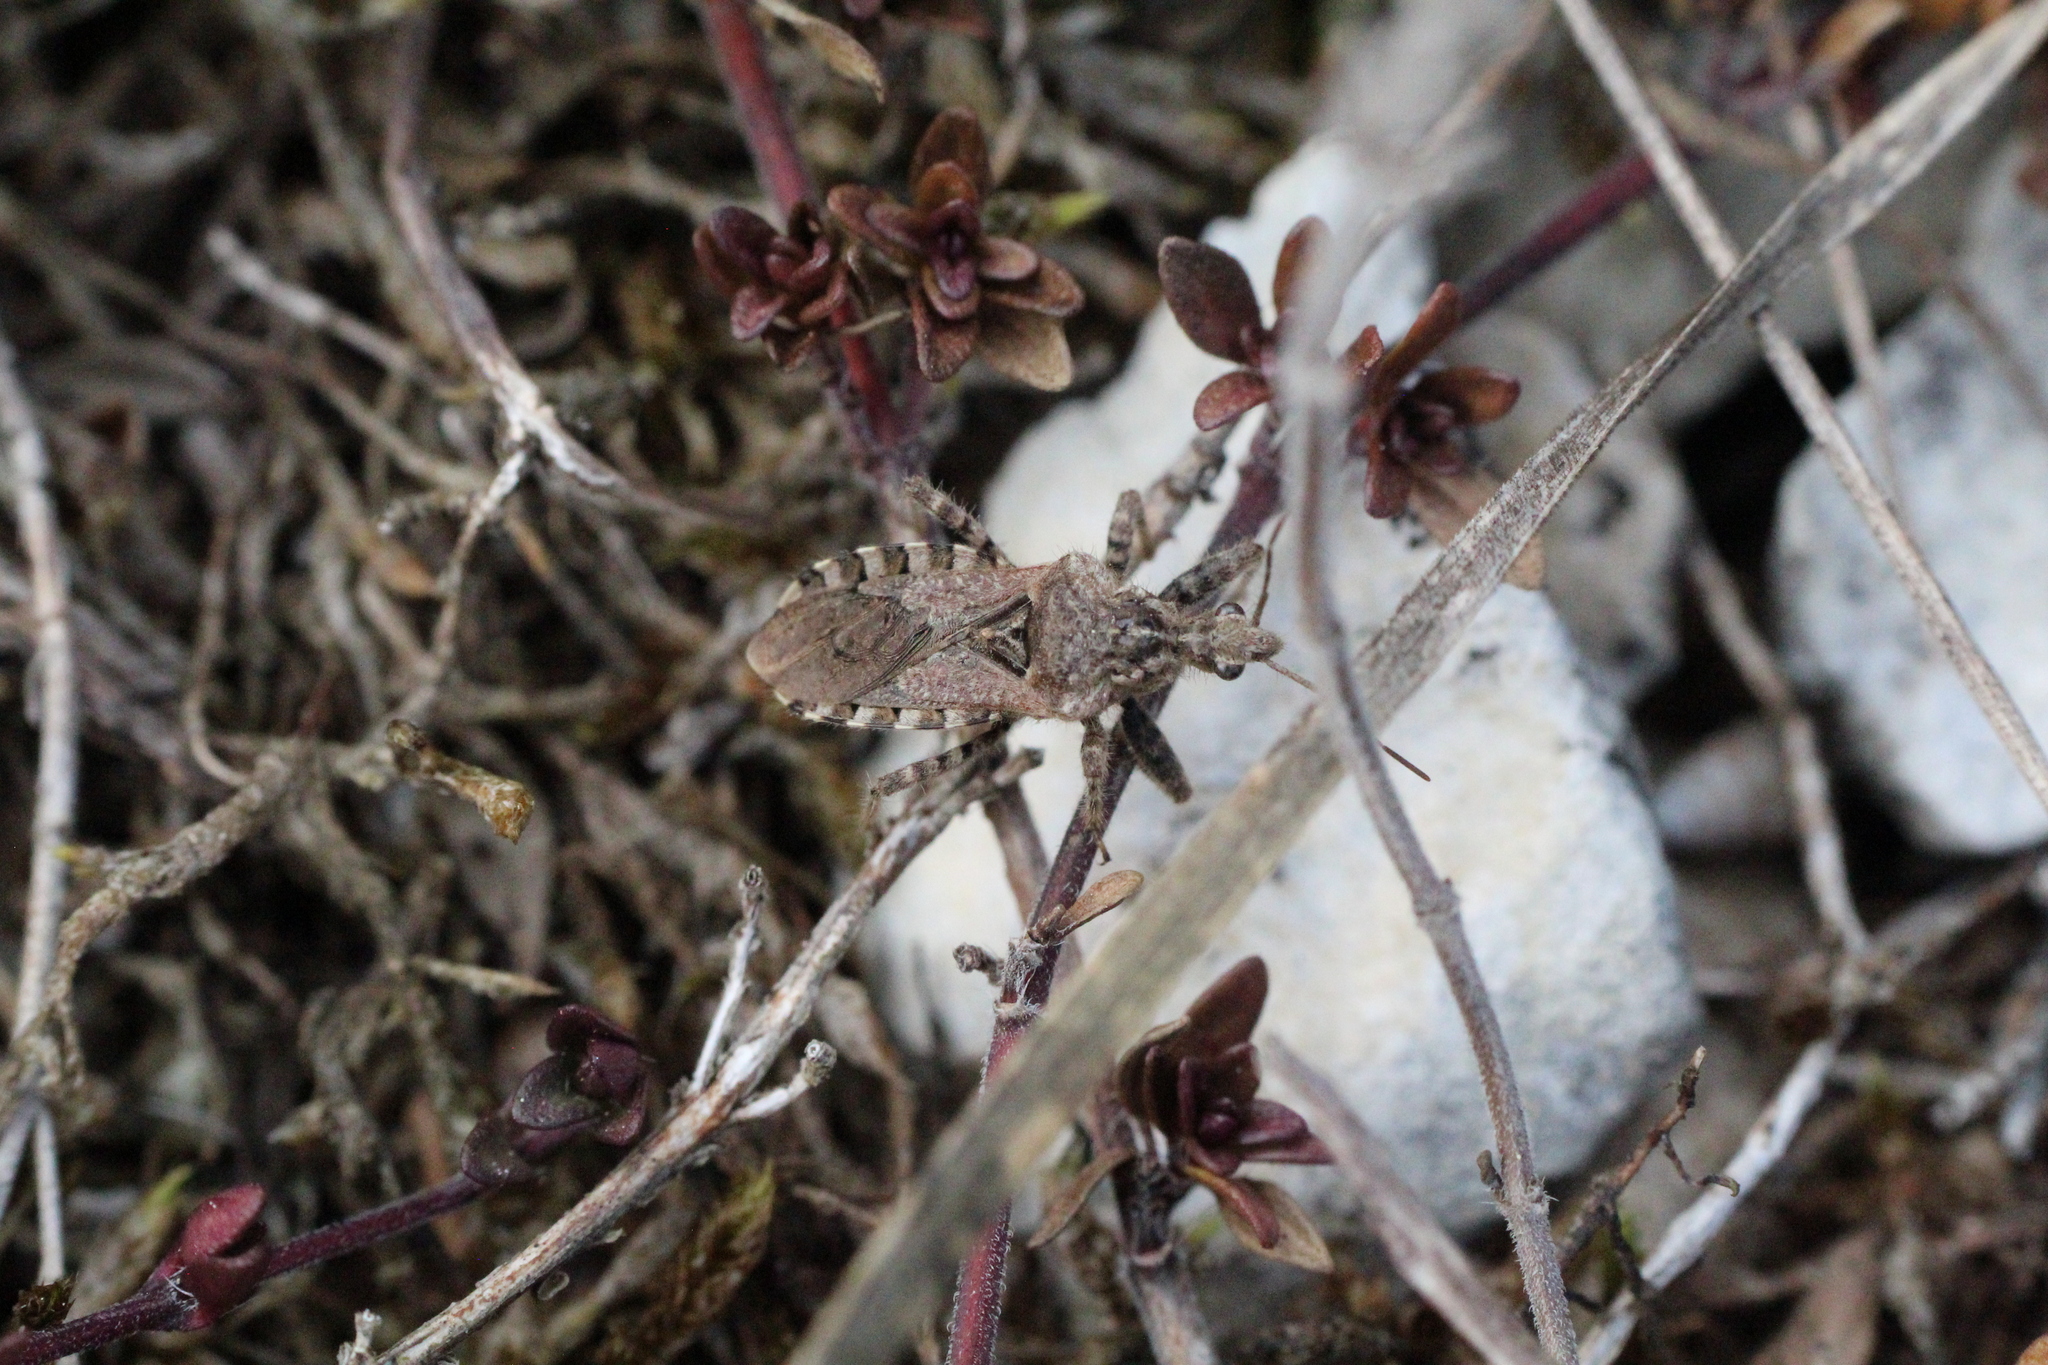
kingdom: Animalia
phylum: Arthropoda
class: Insecta
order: Hemiptera
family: Reduviidae
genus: Coranus
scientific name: Coranus griseus
